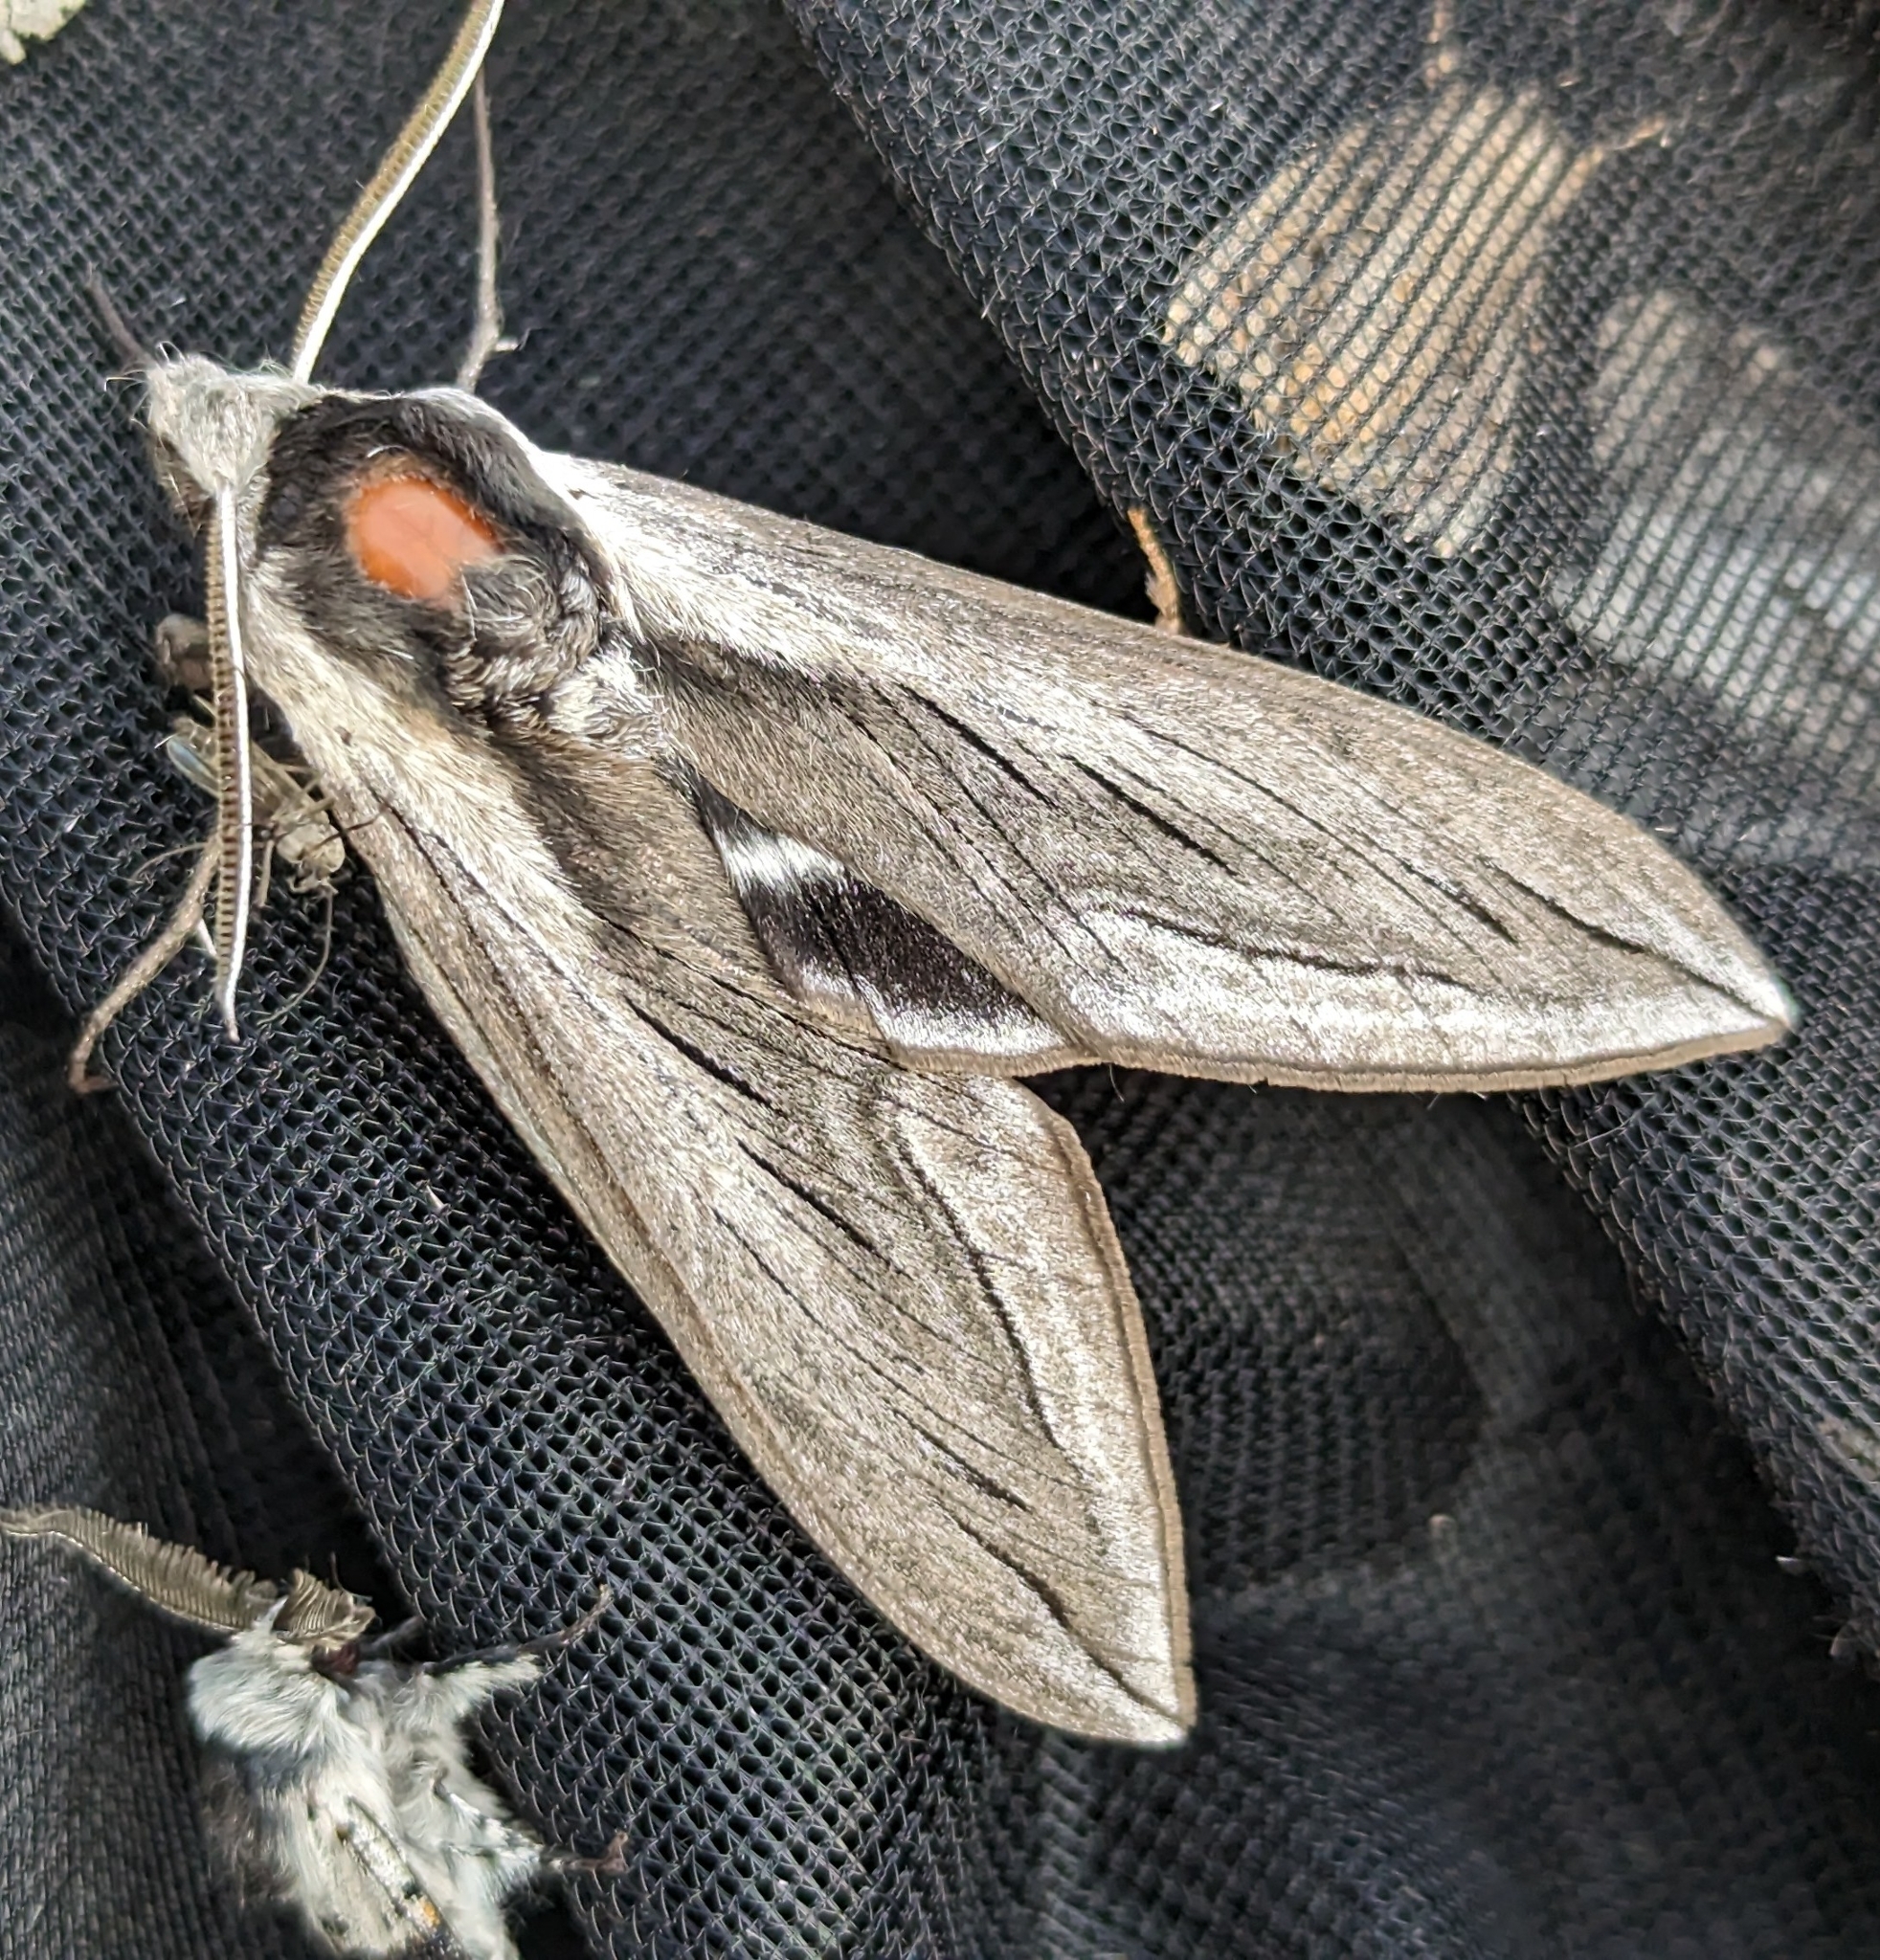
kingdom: Animalia
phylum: Arthropoda
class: Insecta
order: Lepidoptera
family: Sphingidae
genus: Sphinx
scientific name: Sphinx vashti
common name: Snowberry sphinx
